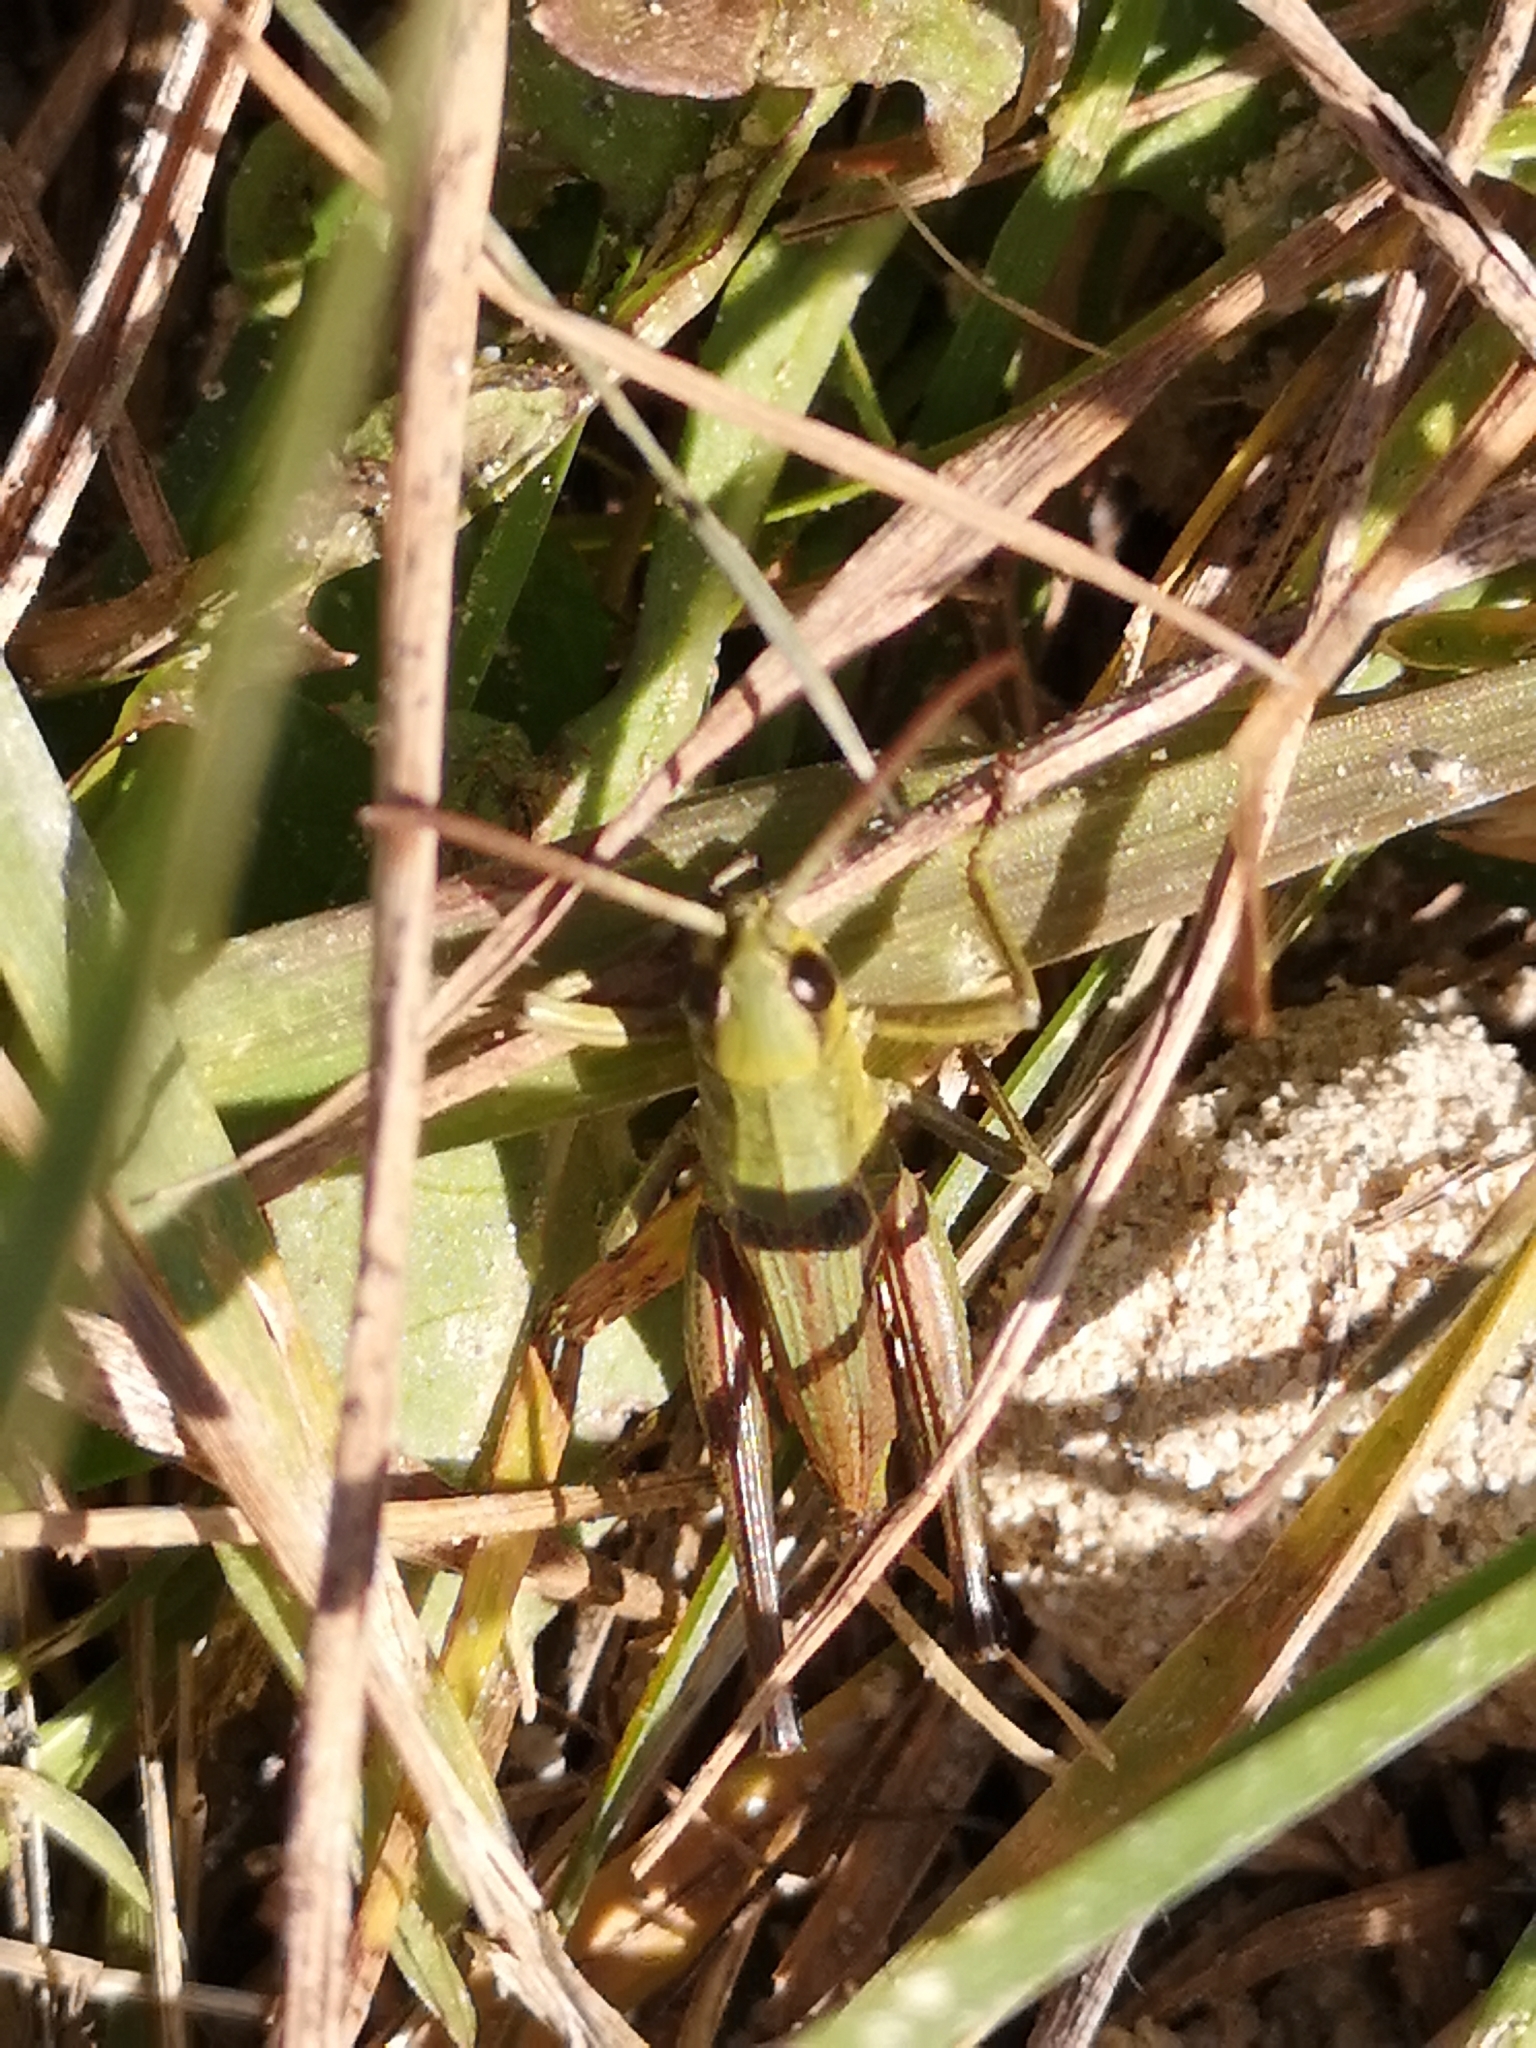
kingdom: Animalia
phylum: Arthropoda
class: Insecta
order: Orthoptera
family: Acrididae
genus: Pseudochorthippus
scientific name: Pseudochorthippus parallelus
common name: Meadow grasshopper
